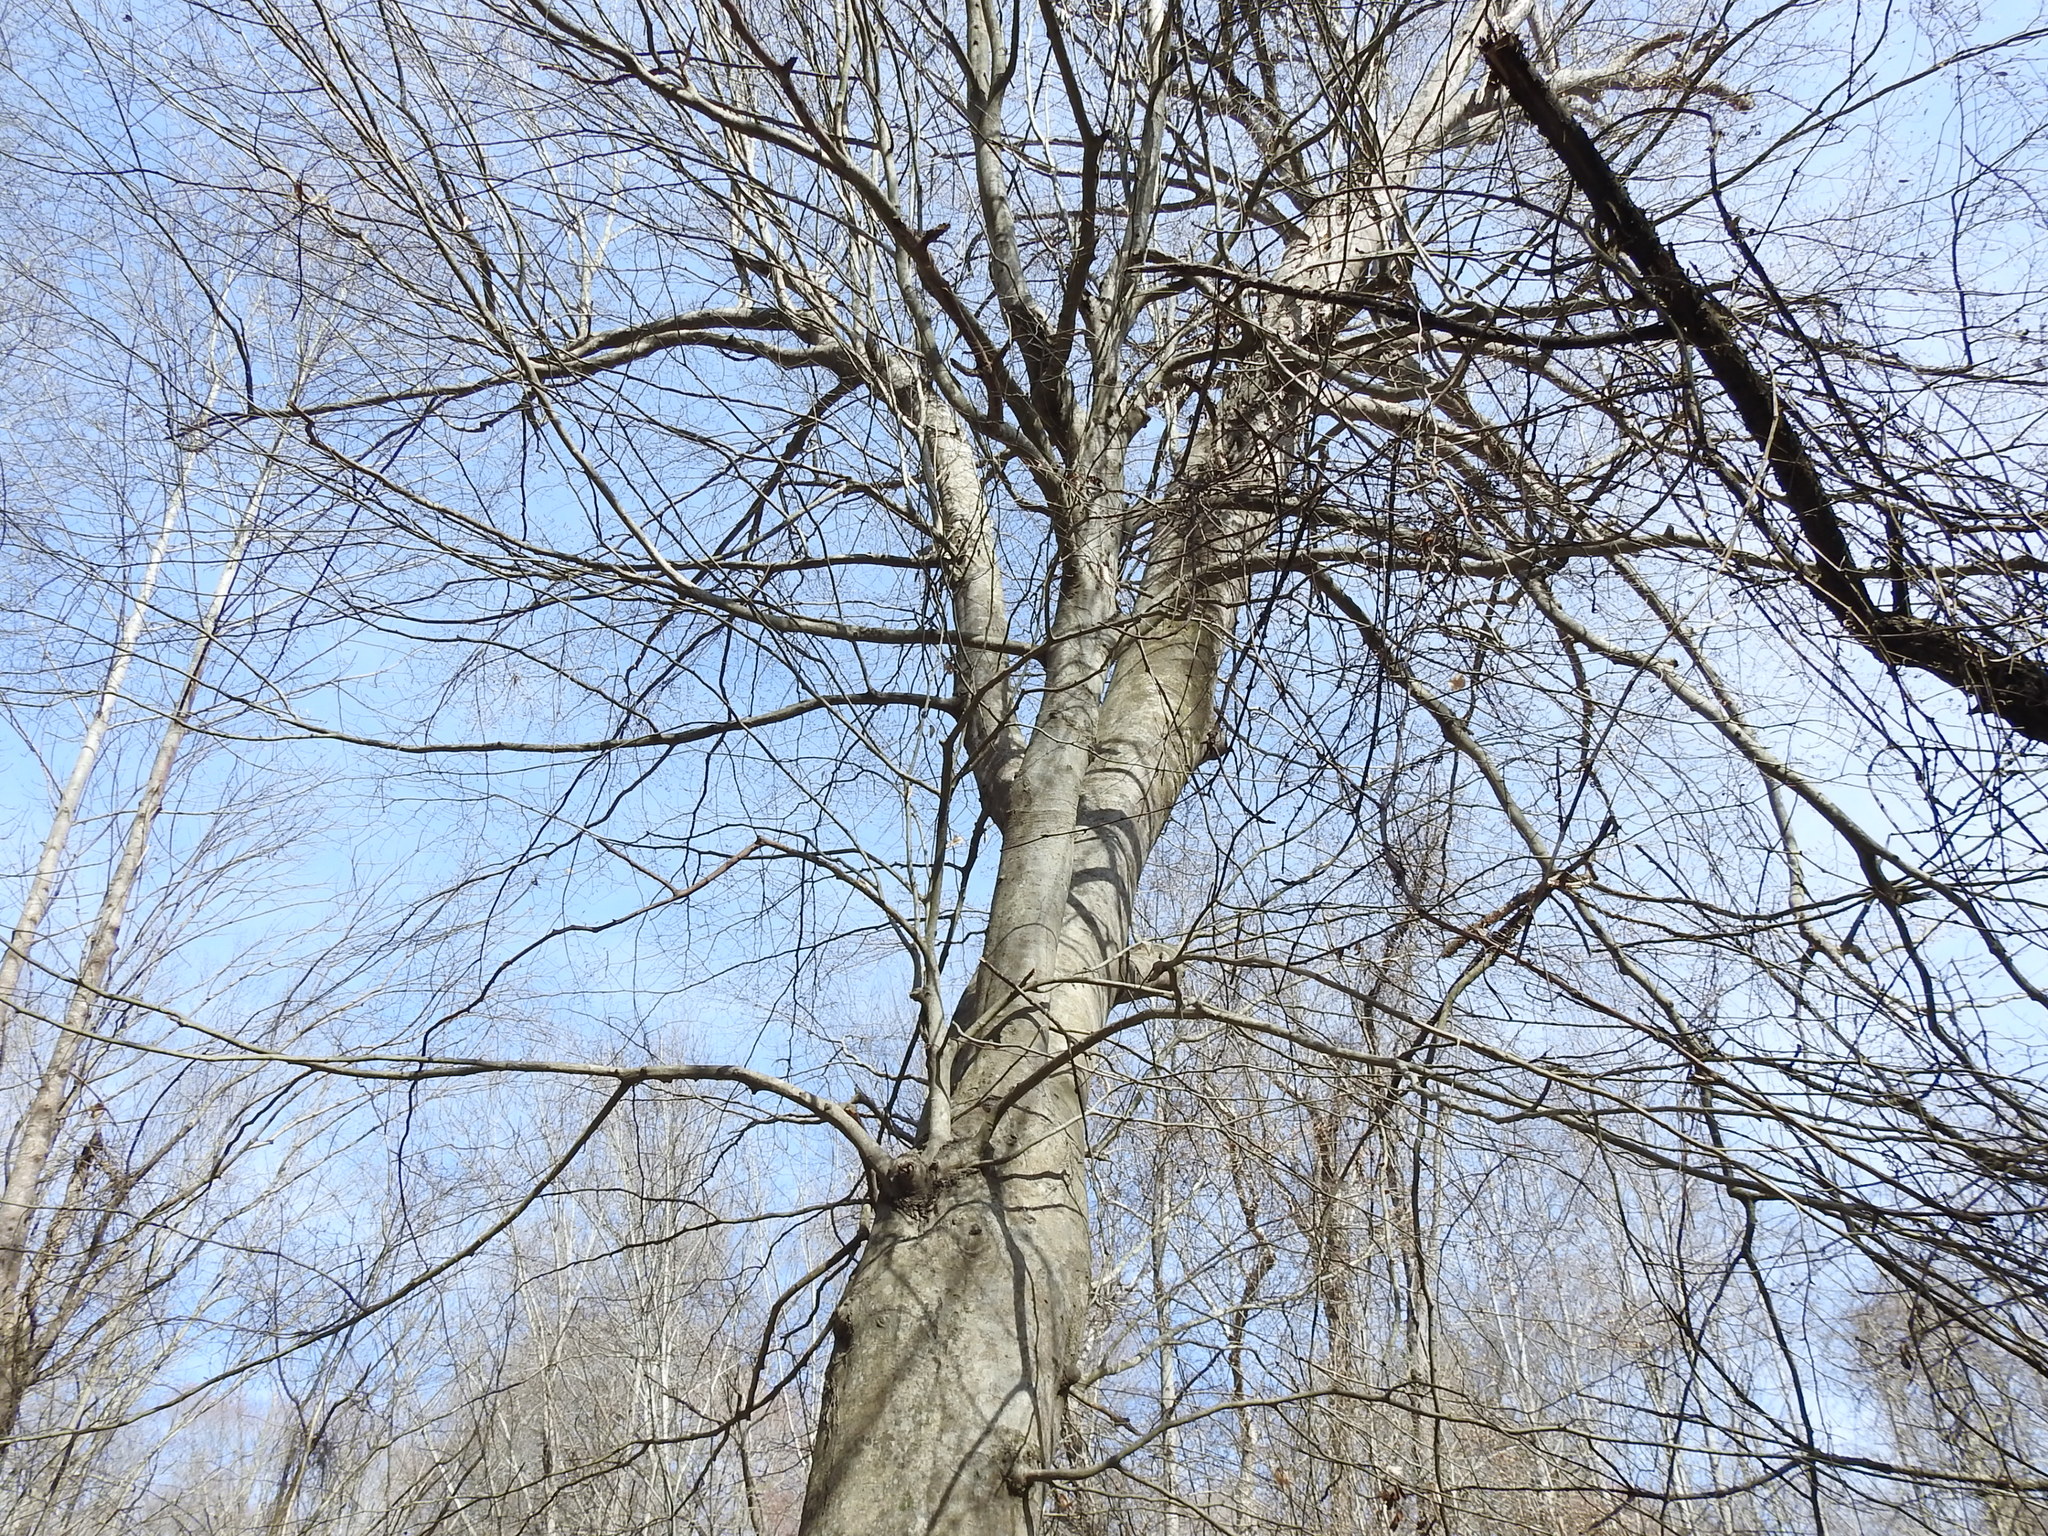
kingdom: Plantae
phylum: Tracheophyta
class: Magnoliopsida
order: Fagales
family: Fagaceae
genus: Fagus
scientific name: Fagus grandifolia
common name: American beech
